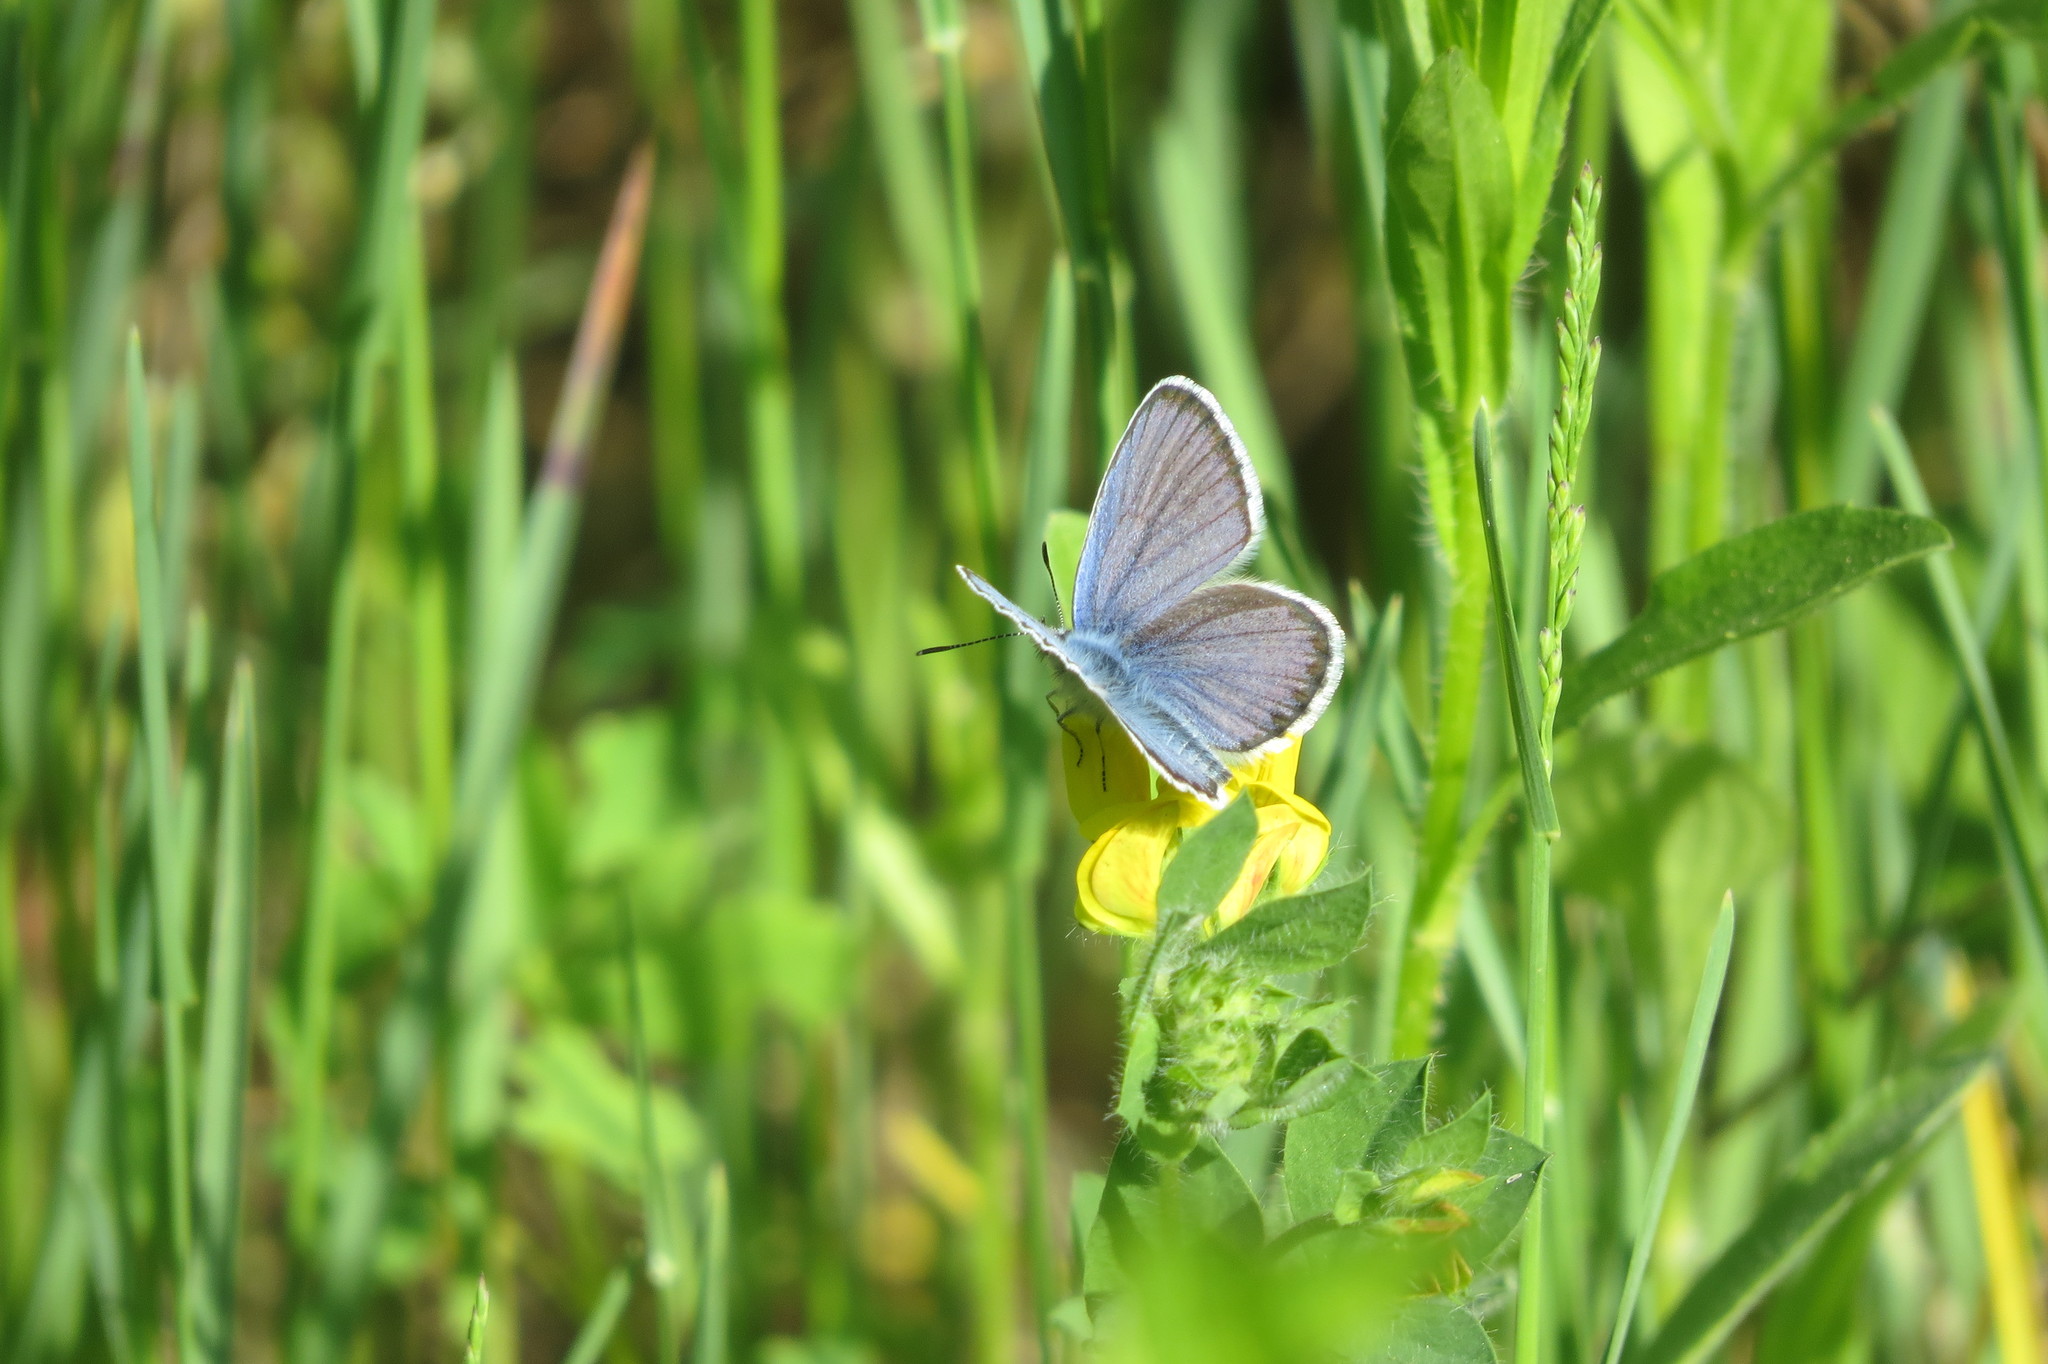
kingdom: Animalia
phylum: Arthropoda
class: Insecta
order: Lepidoptera
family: Lycaenidae
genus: Lycaeides
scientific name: Lycaeides idas
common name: Northern blue
